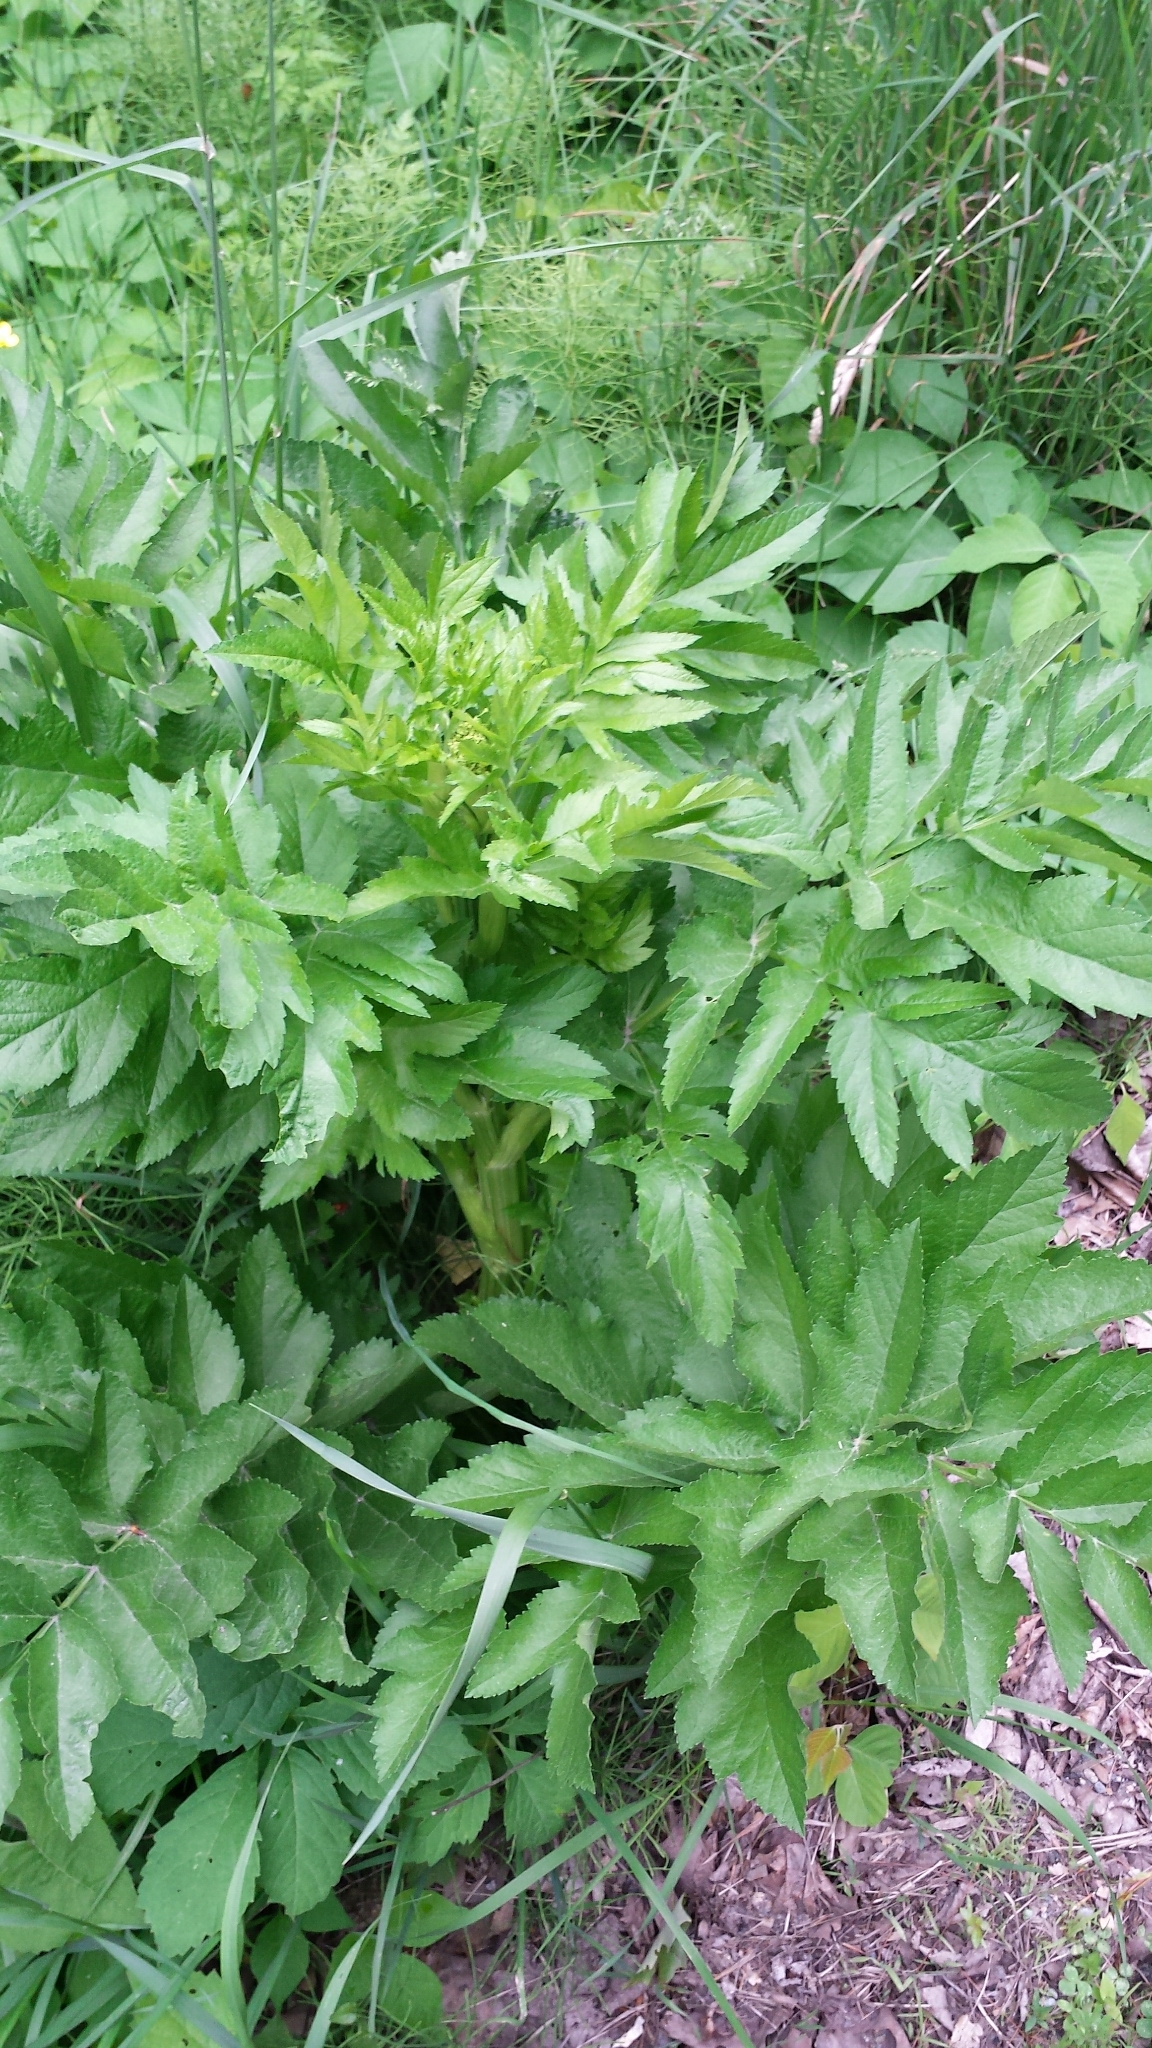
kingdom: Plantae
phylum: Tracheophyta
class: Magnoliopsida
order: Apiales
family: Apiaceae
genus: Pastinaca
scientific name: Pastinaca sativa
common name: Wild parsnip
